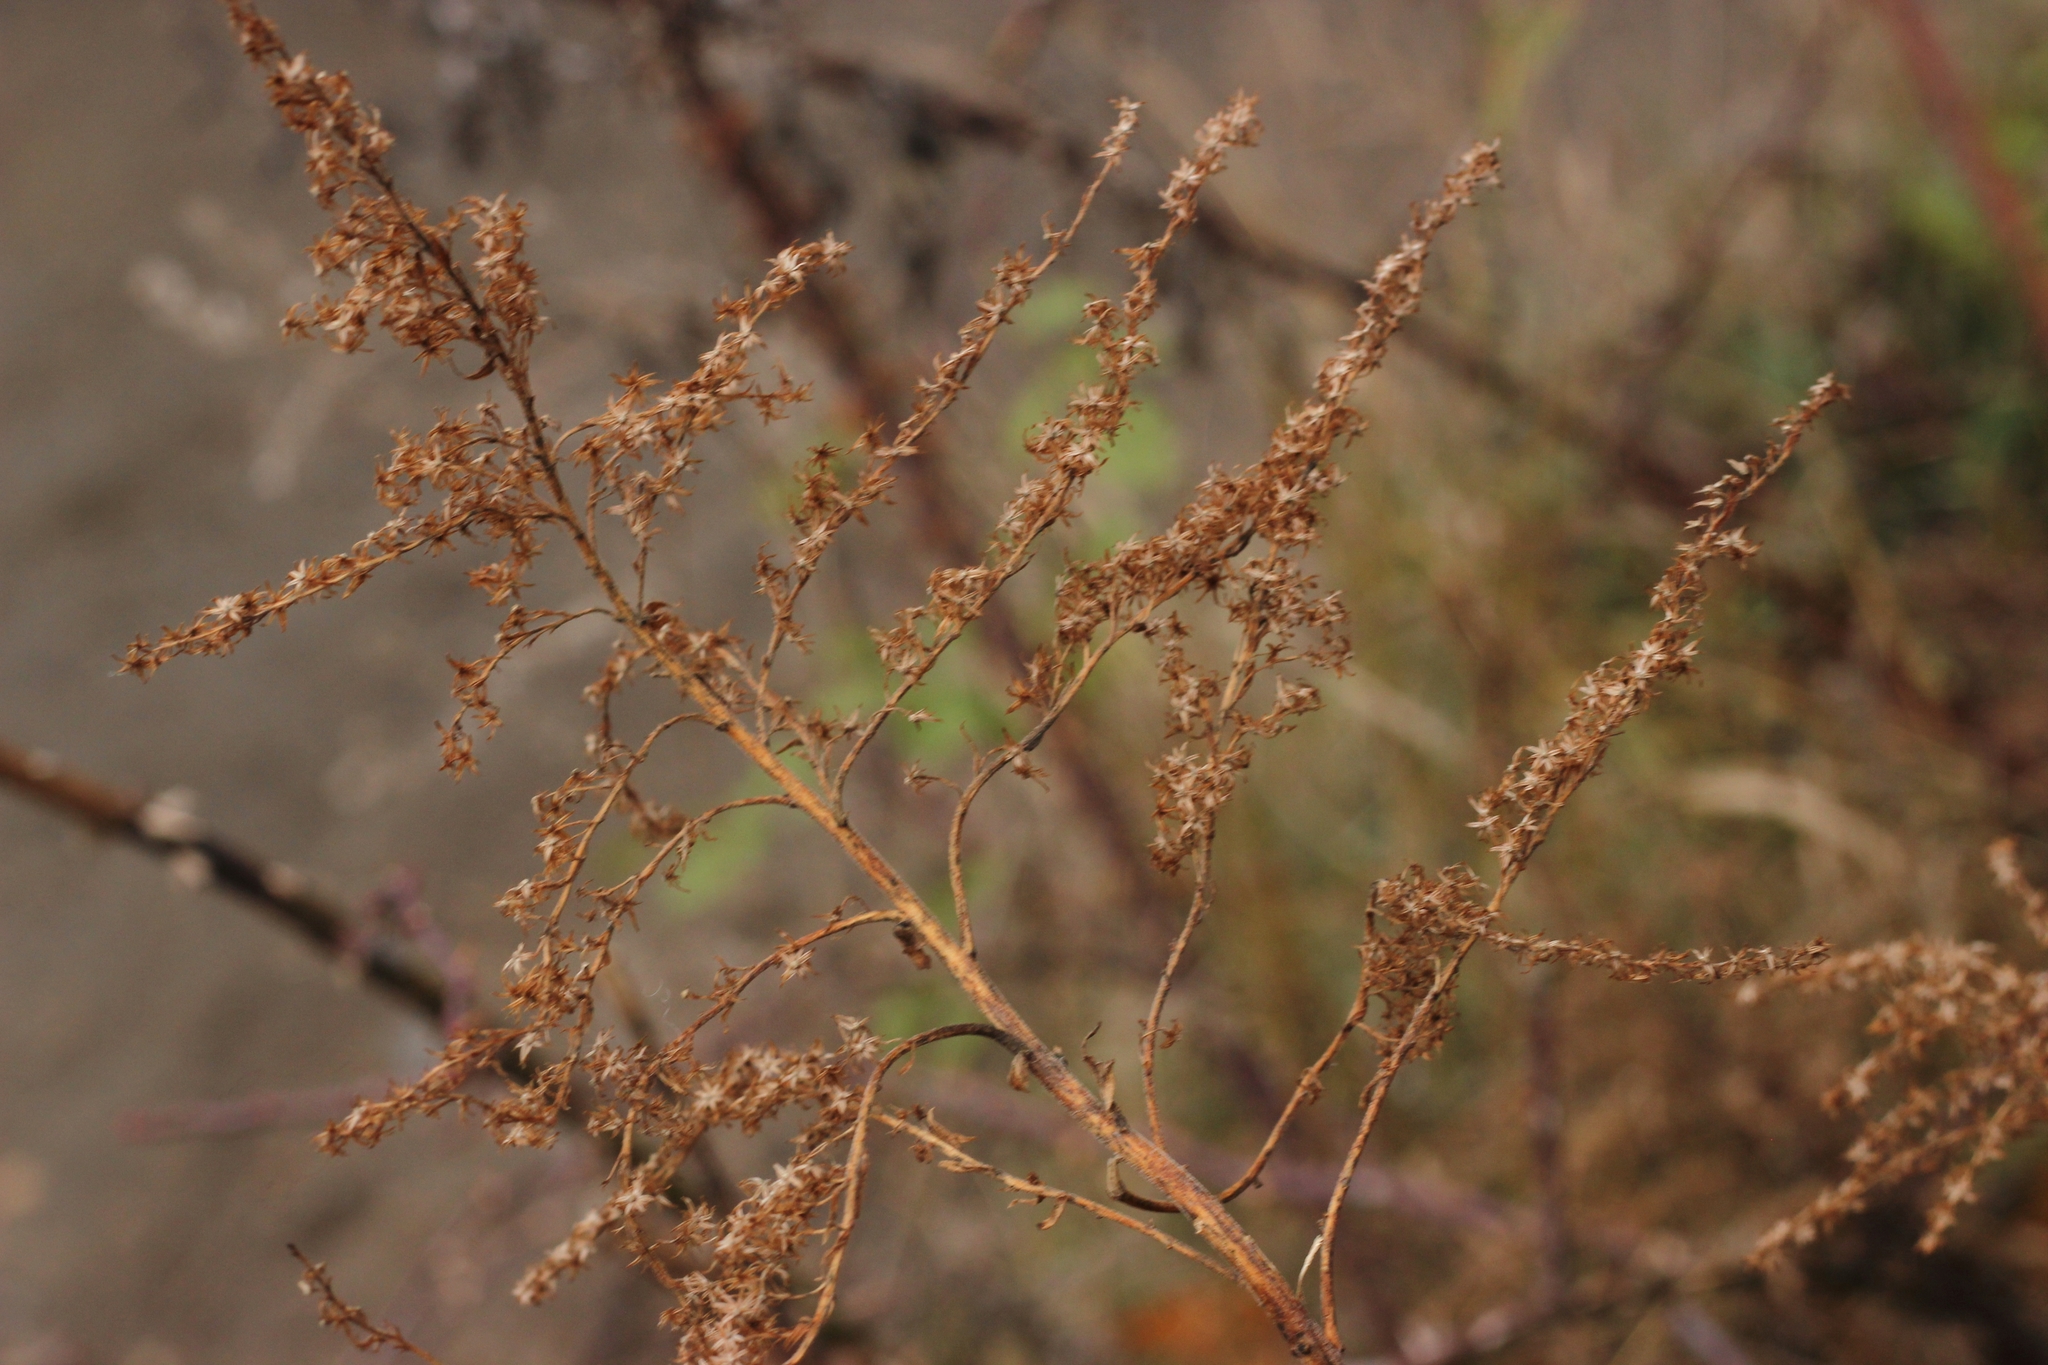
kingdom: Plantae
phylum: Tracheophyta
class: Magnoliopsida
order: Asterales
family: Asteraceae
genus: Solidago
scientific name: Solidago canadensis
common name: Canada goldenrod
